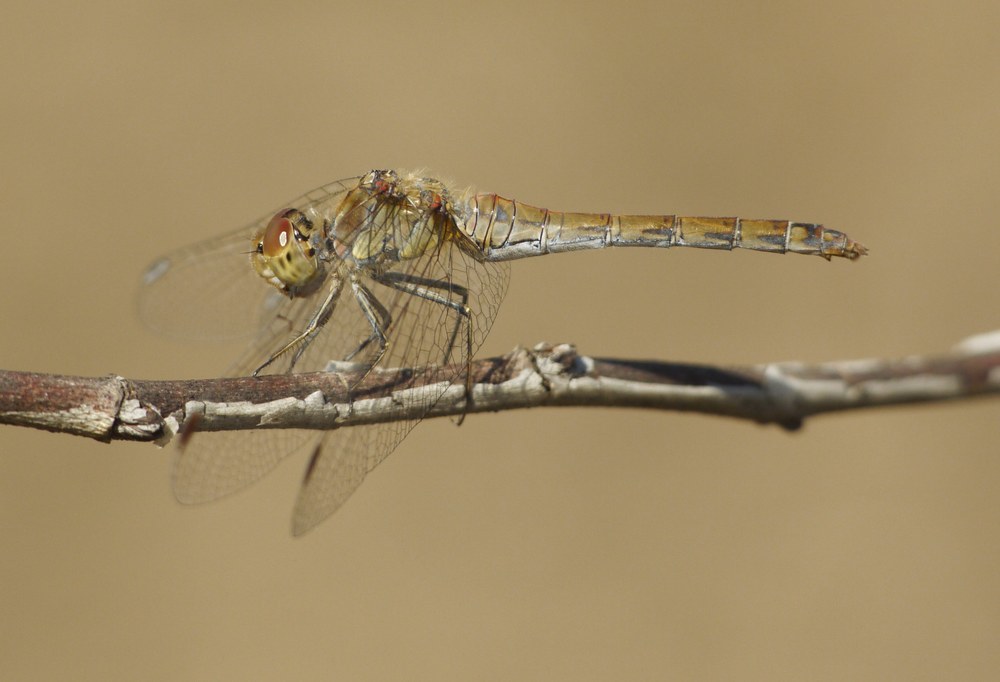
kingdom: Animalia
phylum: Arthropoda
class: Insecta
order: Odonata
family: Libellulidae
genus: Sympetrum
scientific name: Sympetrum striolatum
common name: Common darter
